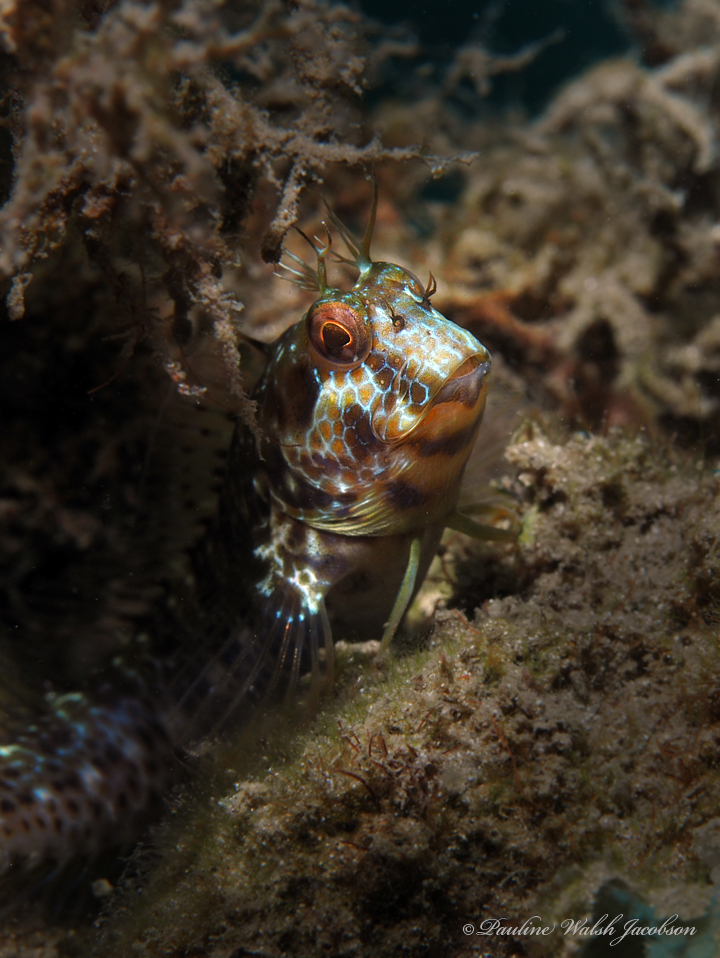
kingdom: Animalia
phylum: Chordata
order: Perciformes
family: Blenniidae
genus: Parablennius
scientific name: Parablennius marmoreus
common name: Seaweed blenny
